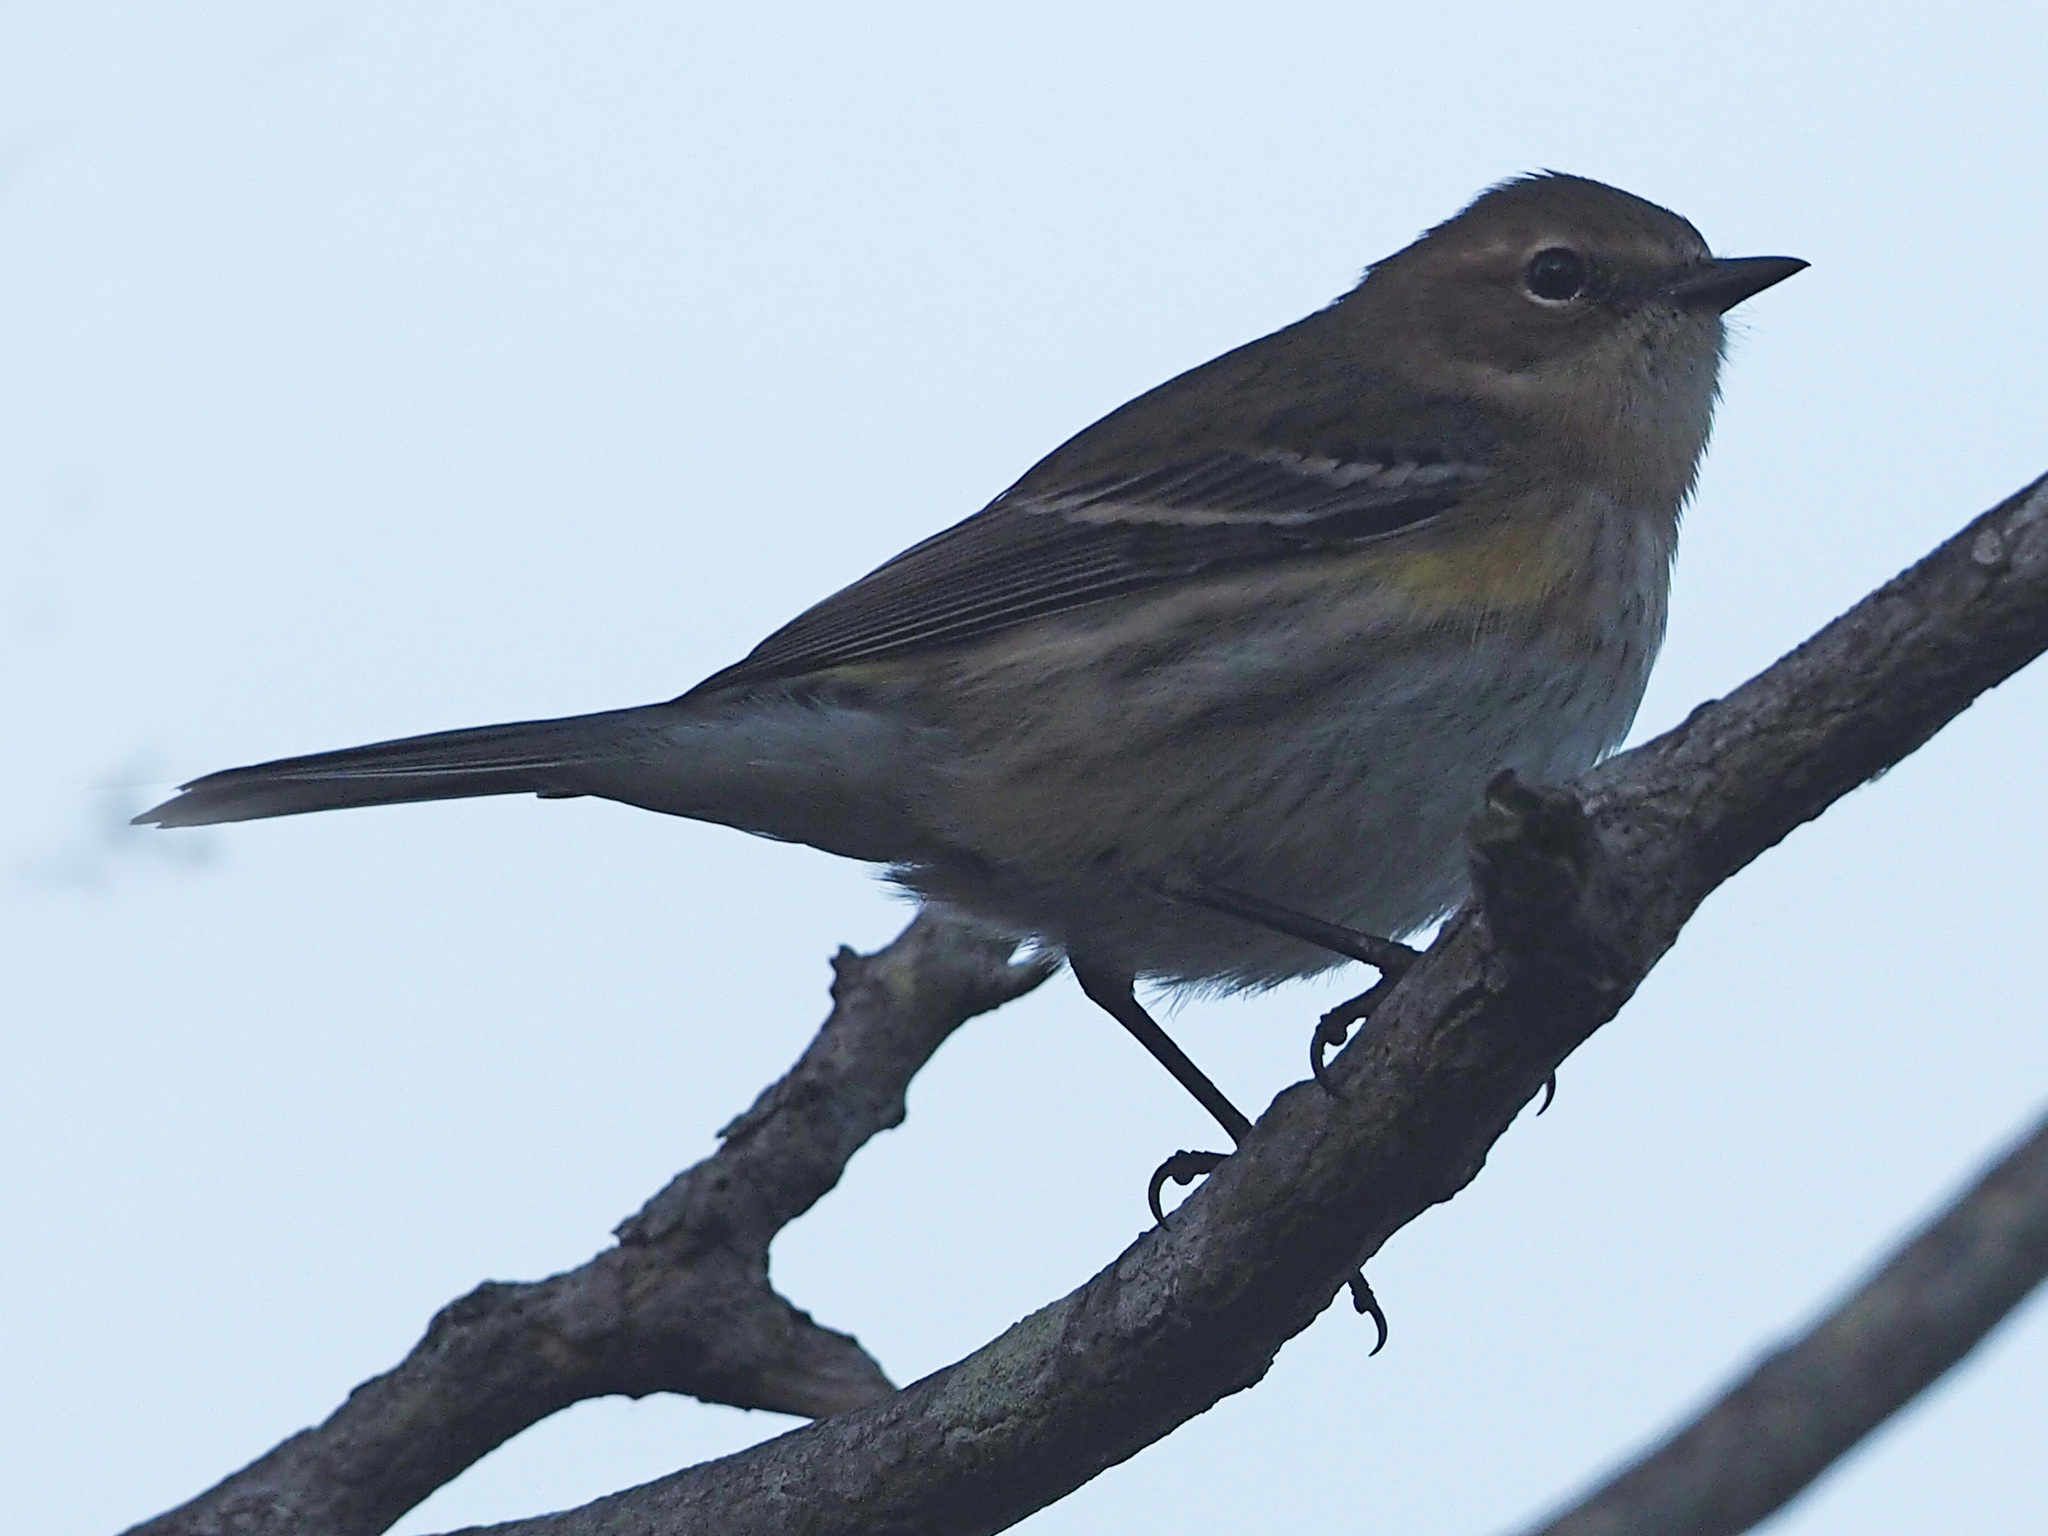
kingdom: Animalia
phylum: Chordata
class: Aves
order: Passeriformes
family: Parulidae
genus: Setophaga
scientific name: Setophaga coronata
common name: Myrtle warbler
